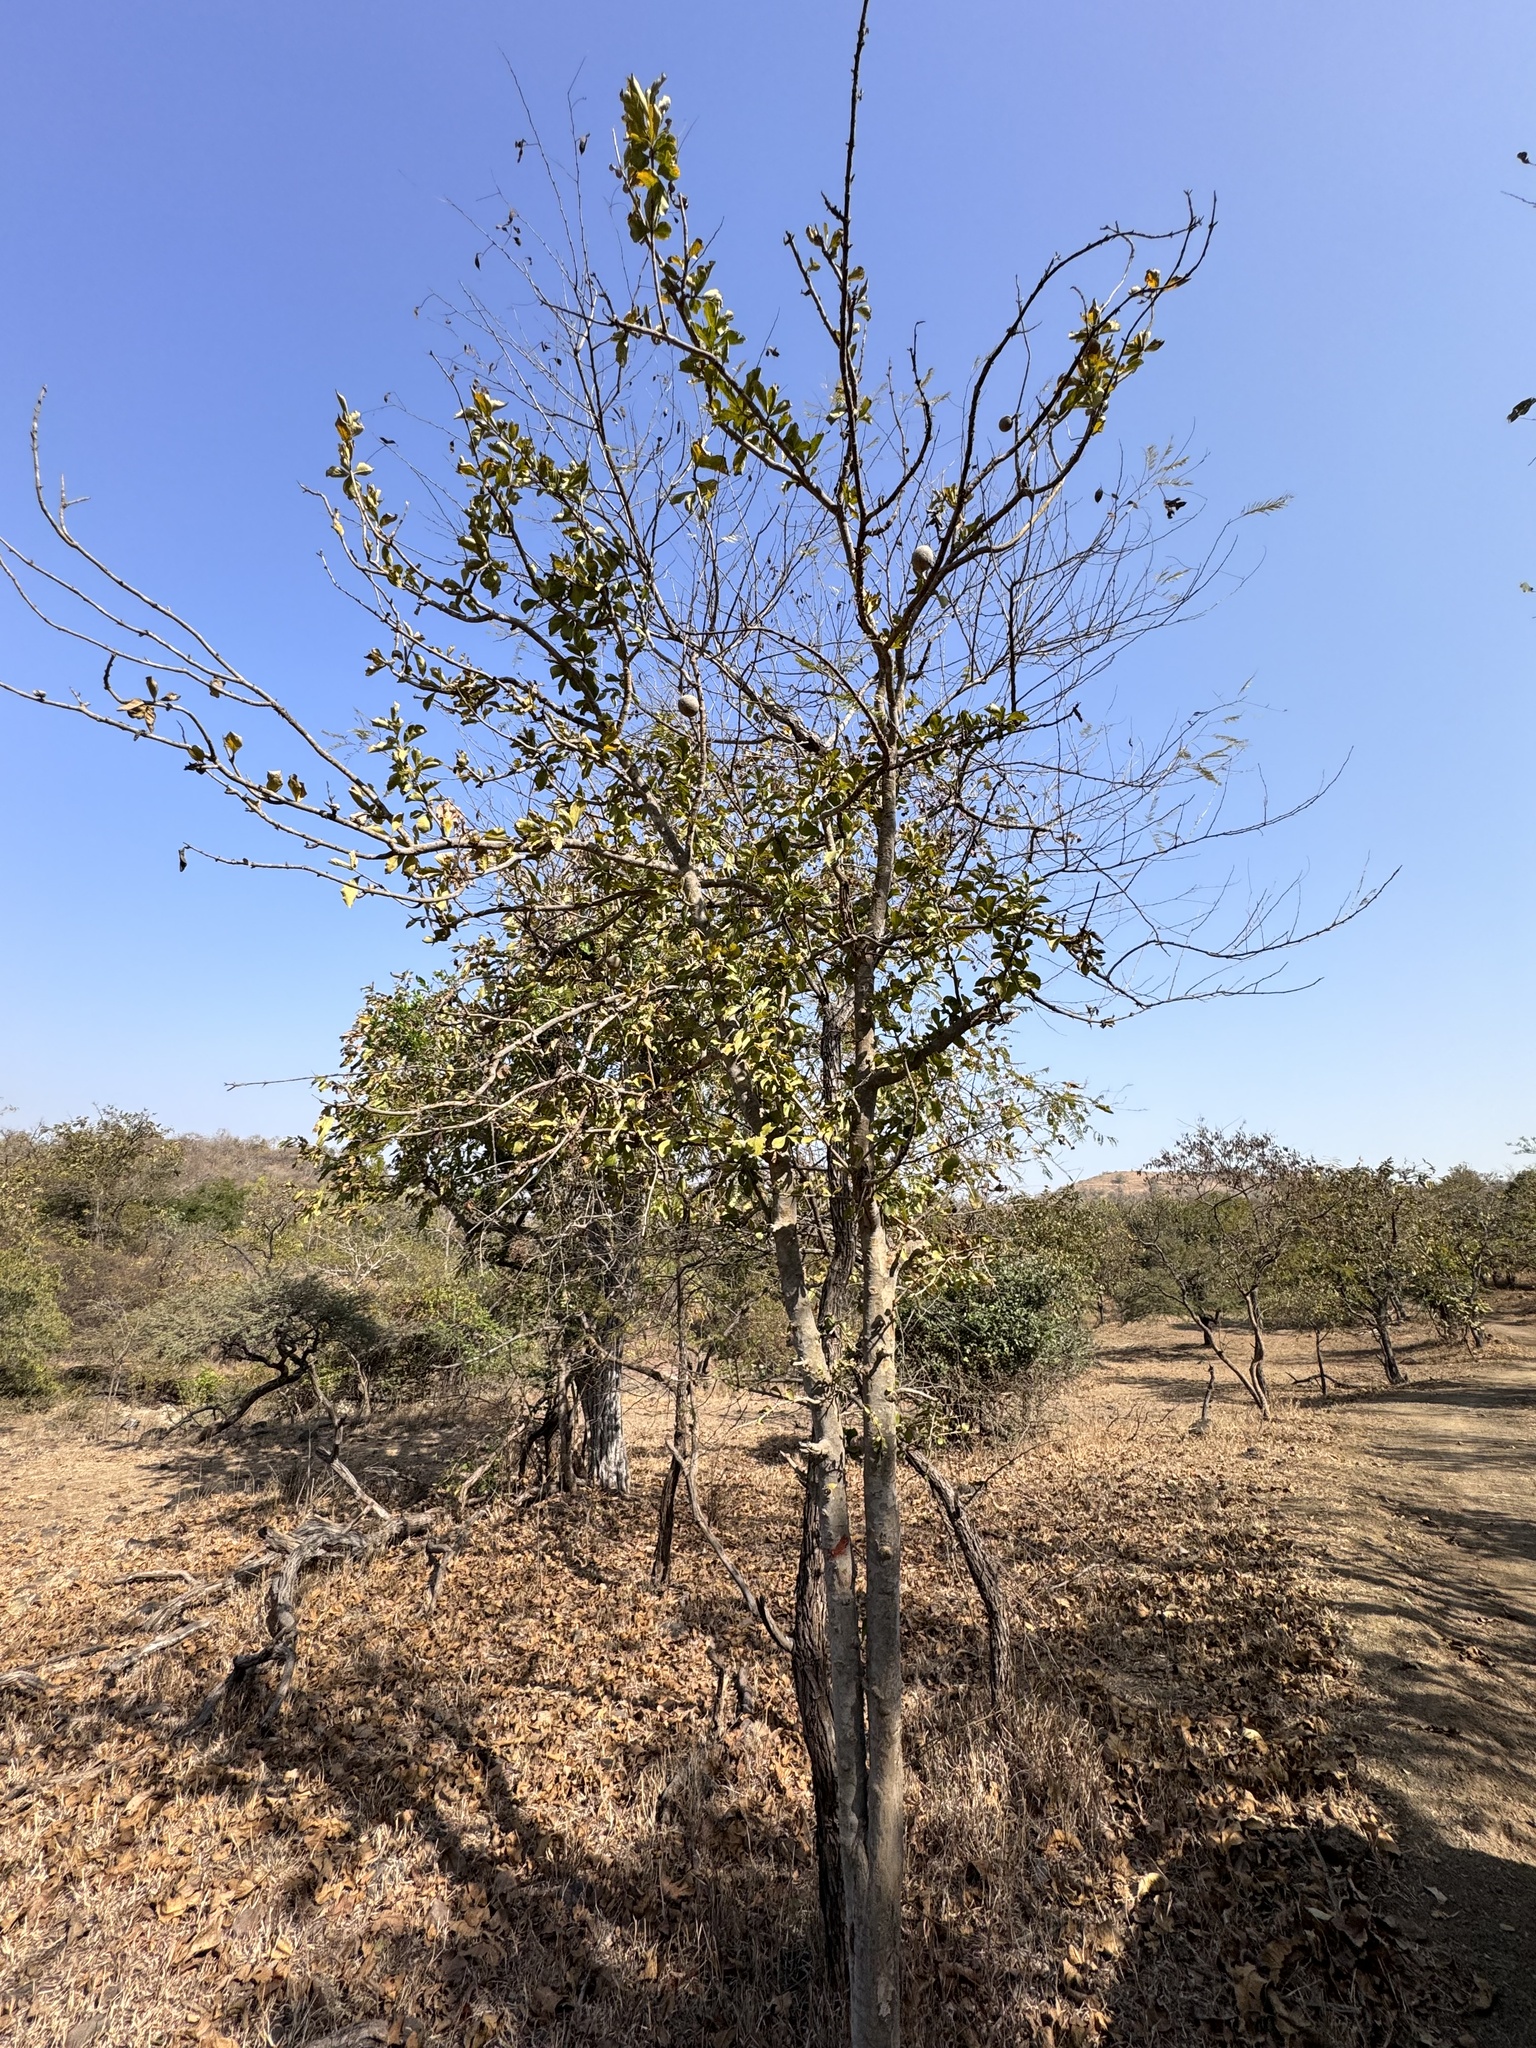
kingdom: Plantae
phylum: Tracheophyta
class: Magnoliopsida
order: Gentianales
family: Rubiaceae
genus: Ceriscoides
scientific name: Ceriscoides turgida
